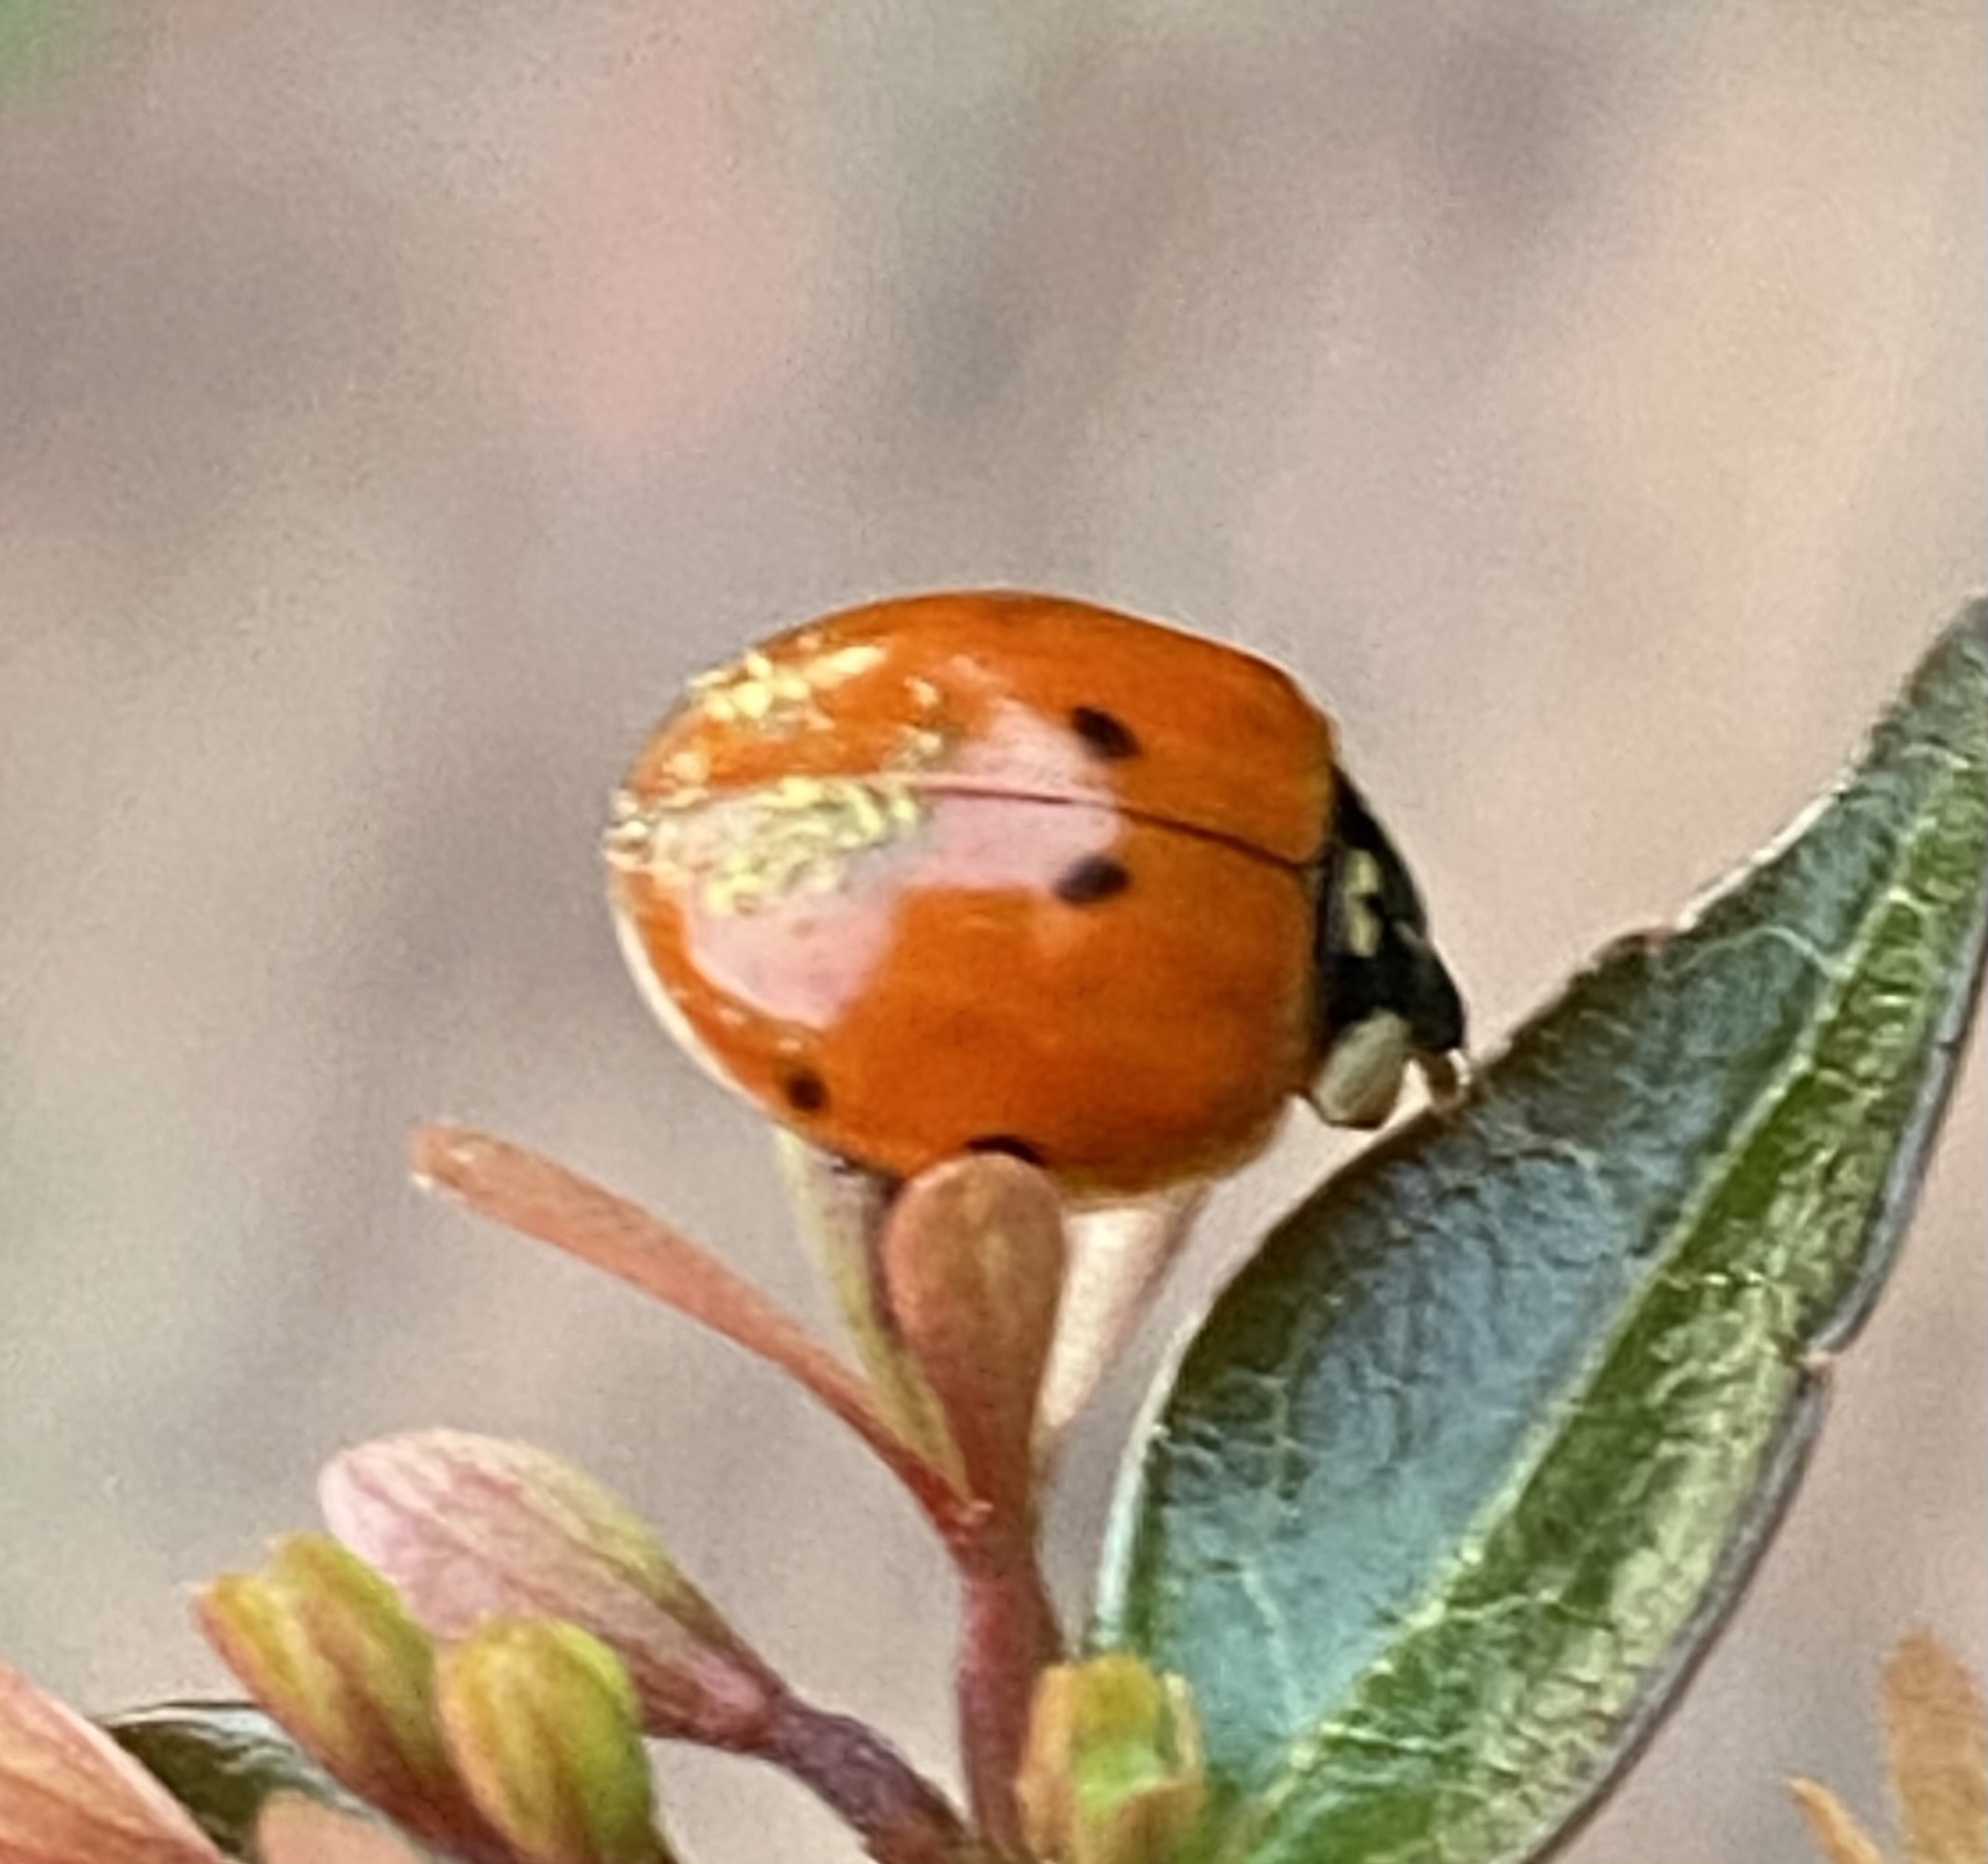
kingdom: Animalia
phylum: Arthropoda
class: Insecta
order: Coleoptera
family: Coccinellidae
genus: Harmonia
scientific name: Harmonia axyridis
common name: Harlequin ladybird
